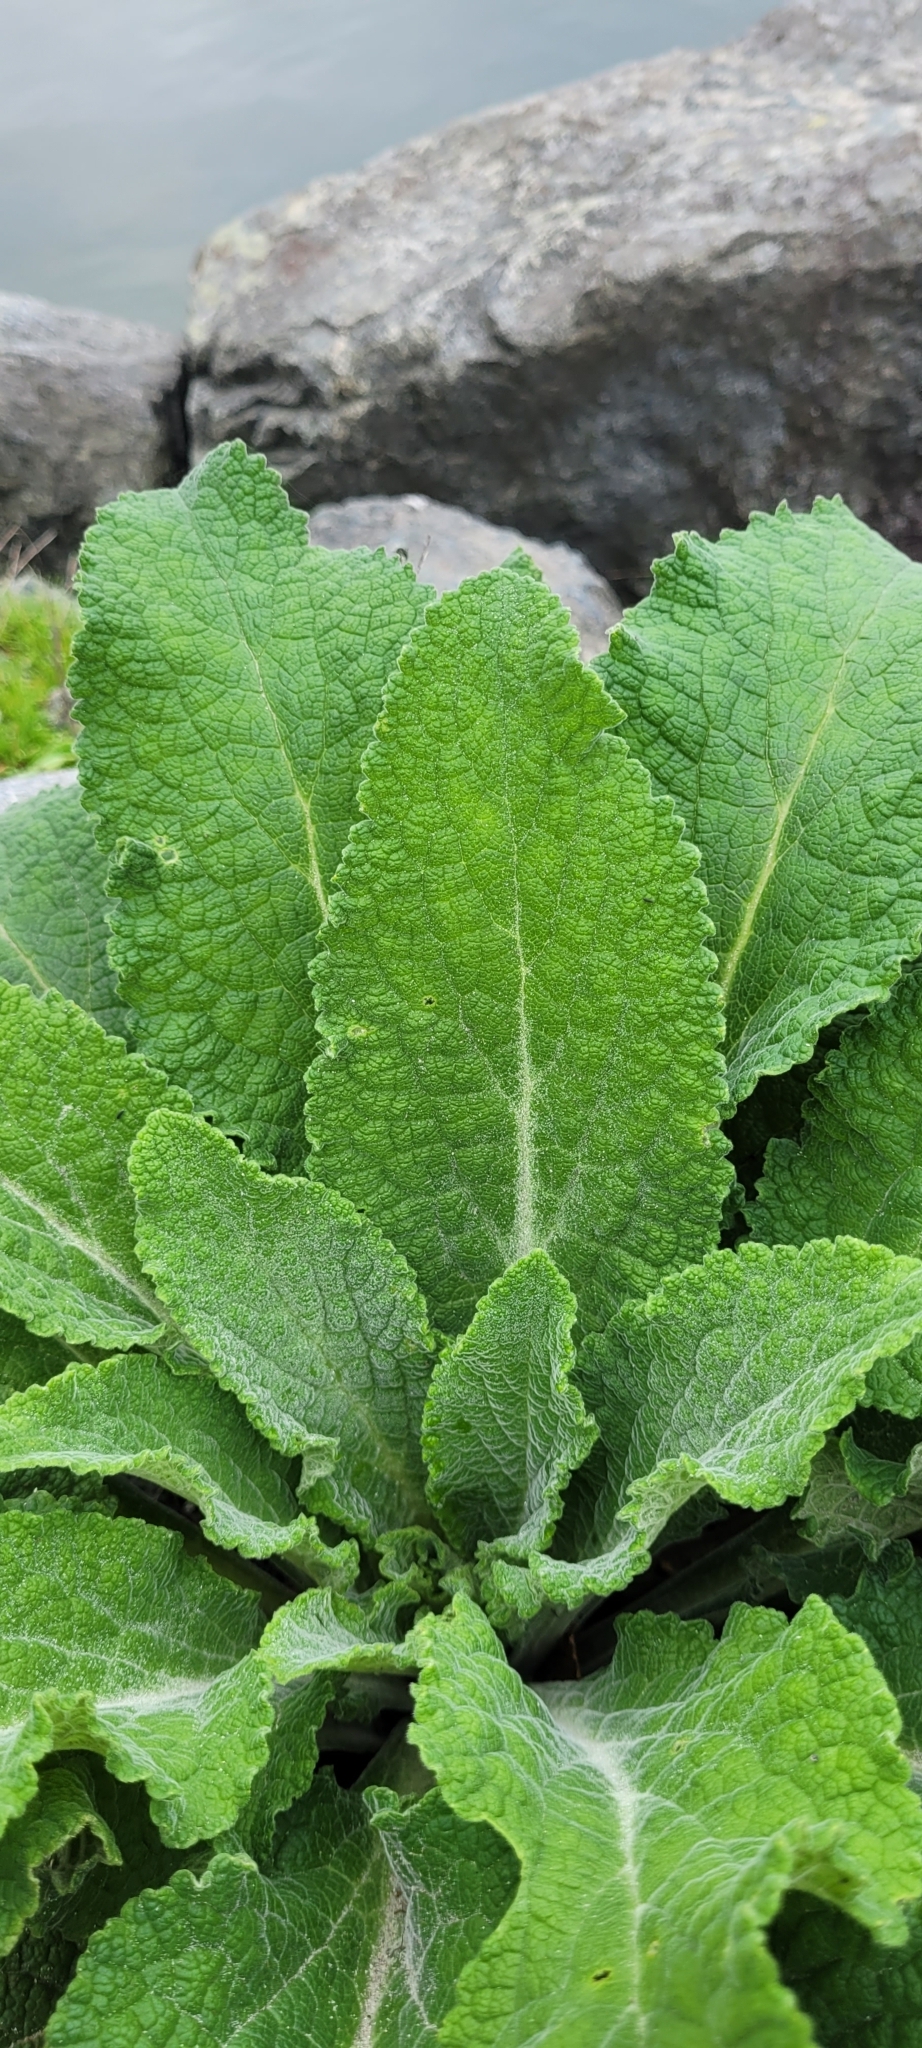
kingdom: Plantae
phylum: Tracheophyta
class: Magnoliopsida
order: Lamiales
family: Plantaginaceae
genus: Digitalis
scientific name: Digitalis purpurea
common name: Foxglove
